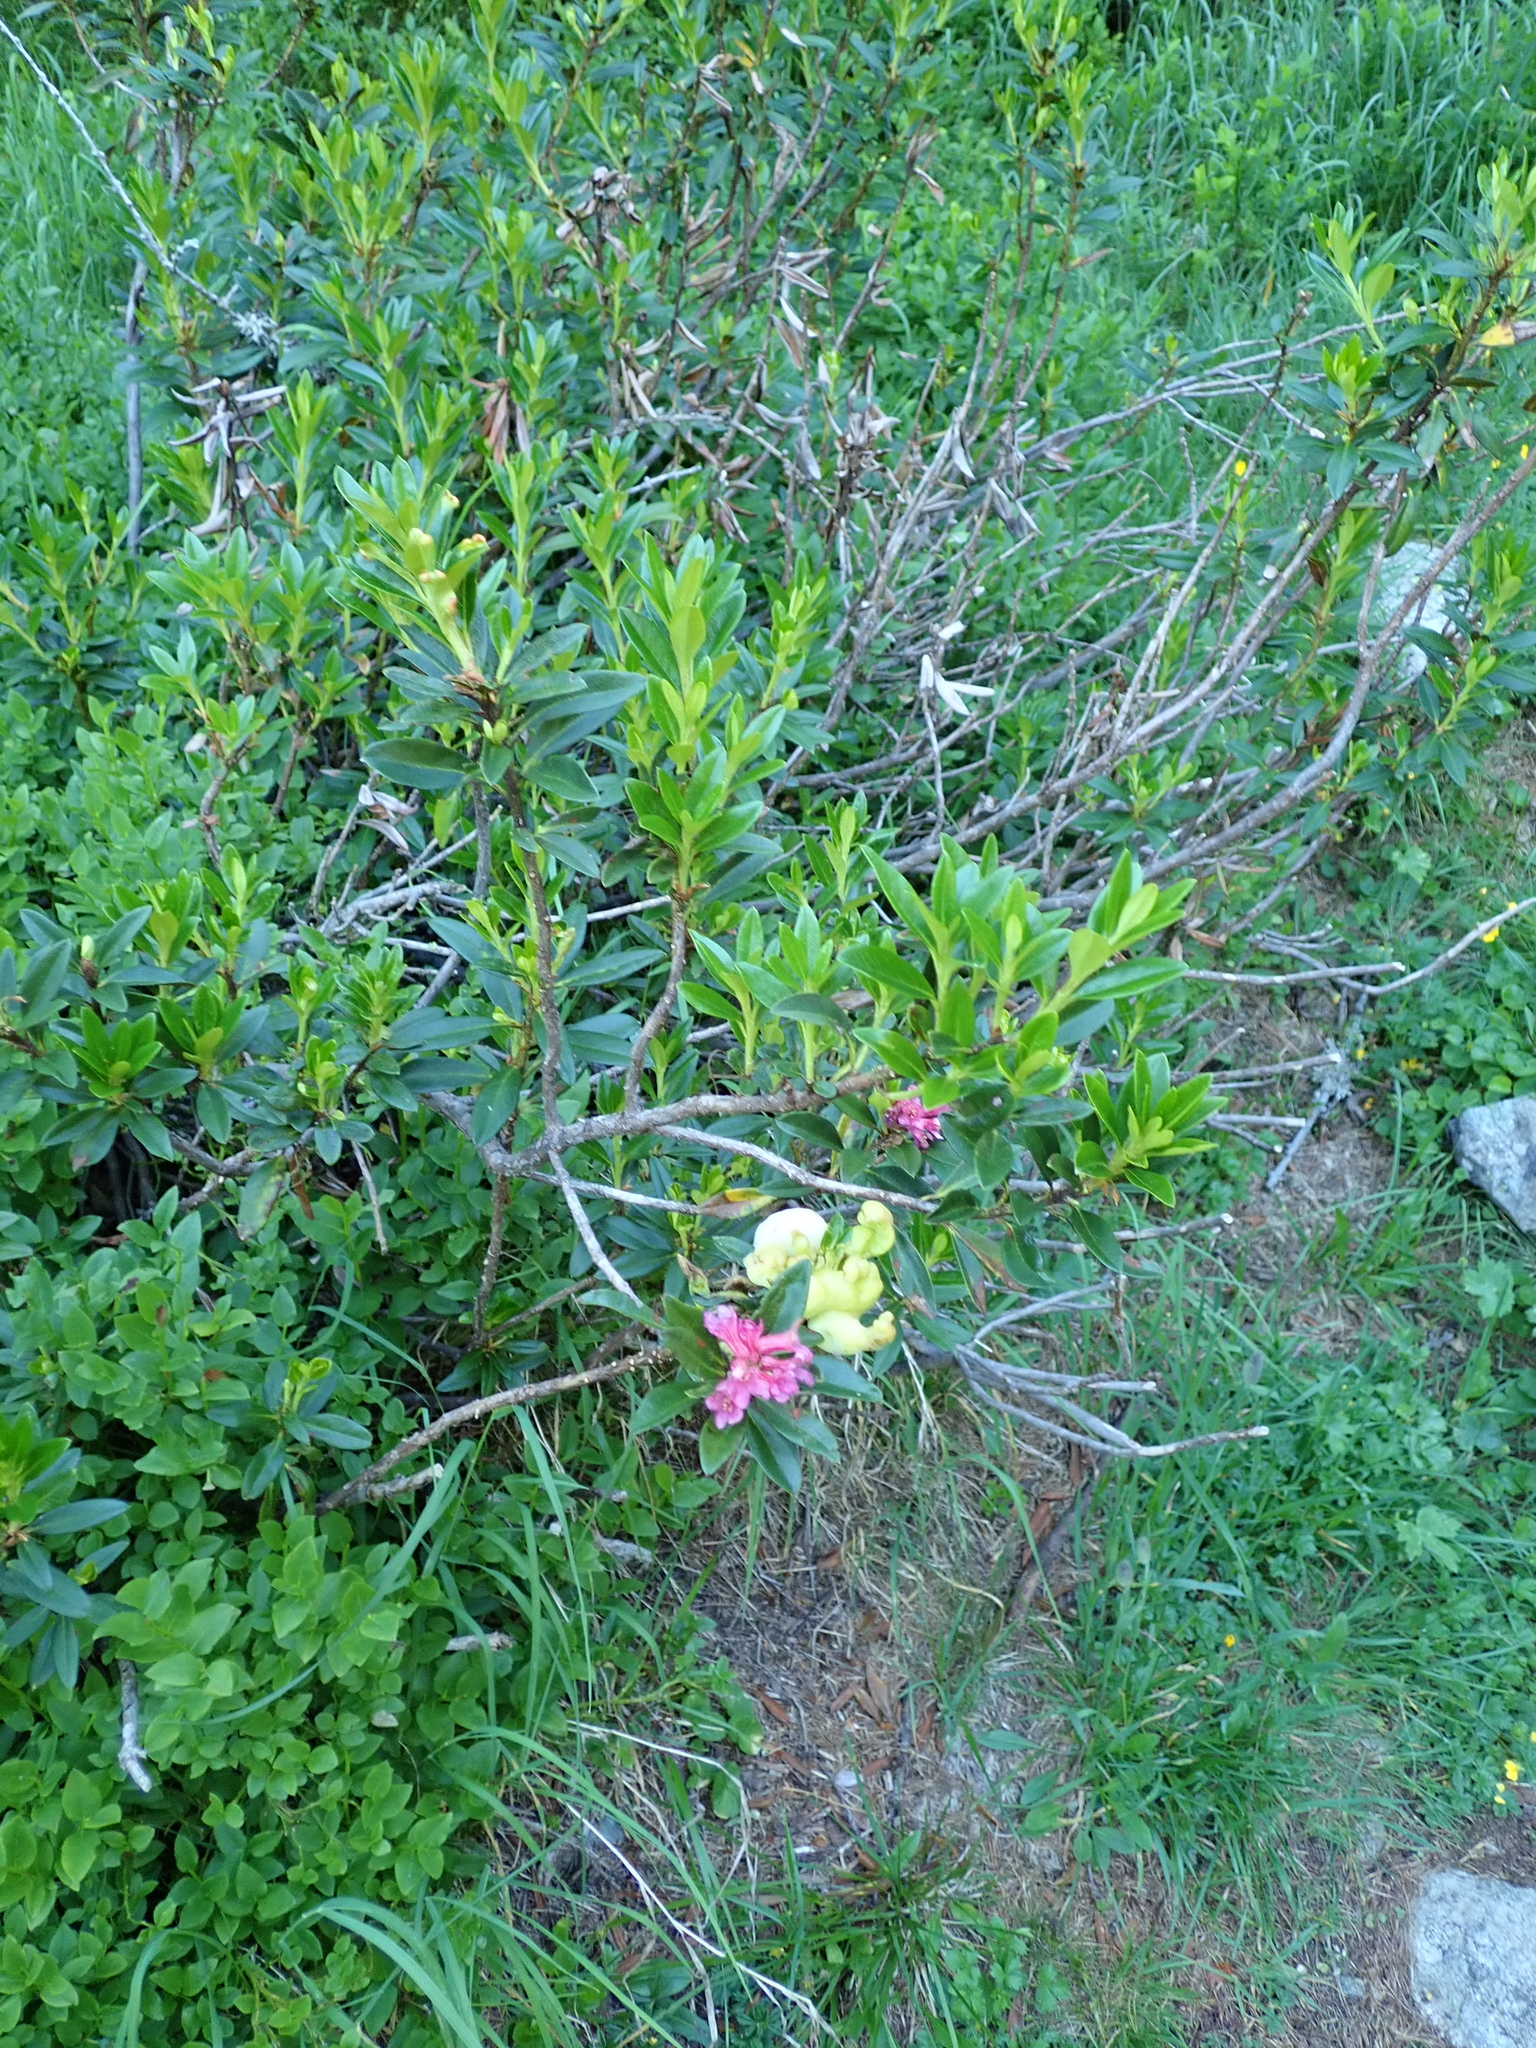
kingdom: Plantae
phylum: Tracheophyta
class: Magnoliopsida
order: Ericales
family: Ericaceae
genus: Rhododendron
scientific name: Rhododendron ferrugineum
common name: Alpenrose
